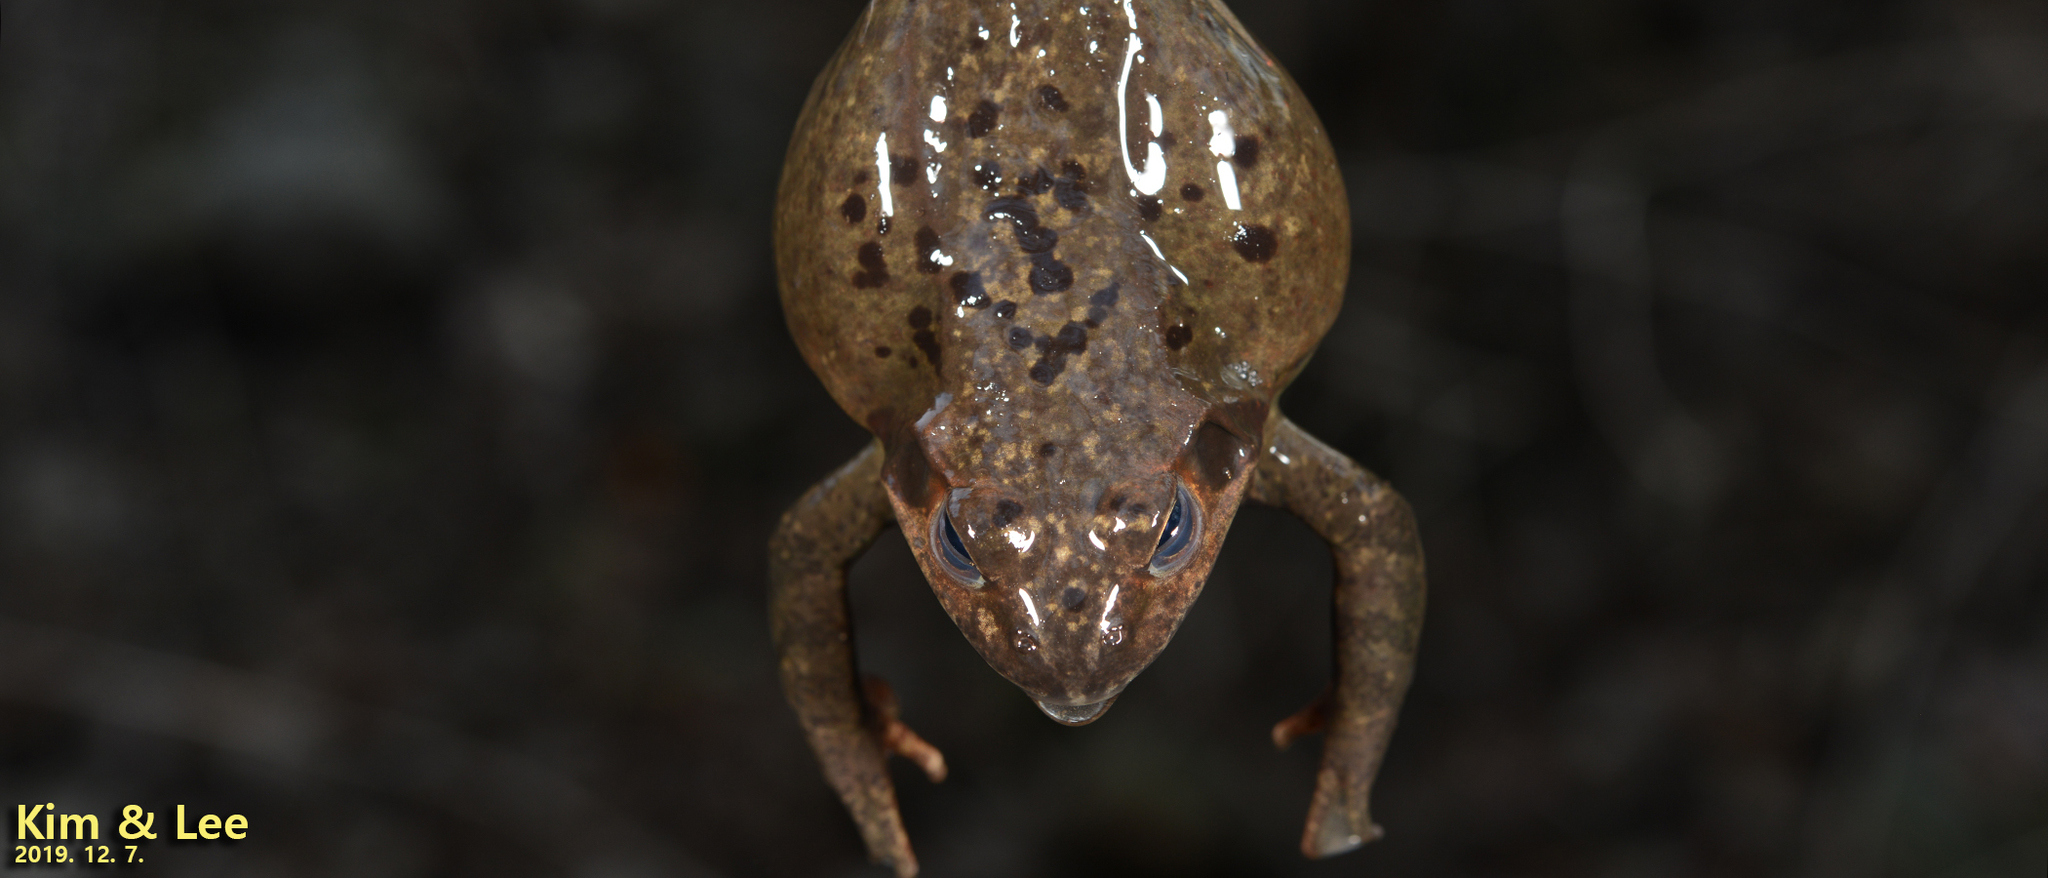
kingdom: Animalia
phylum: Chordata
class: Amphibia
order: Anura
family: Ranidae
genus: Rana
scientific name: Rana dybowskii
